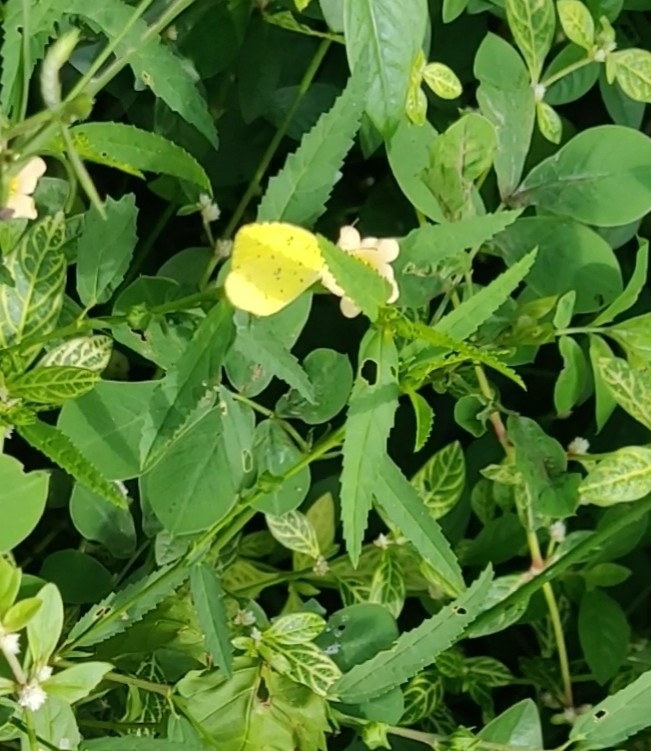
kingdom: Animalia
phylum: Arthropoda
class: Insecta
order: Lepidoptera
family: Pieridae
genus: Eurema
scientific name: Eurema hecabe
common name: Pale grass yellow
